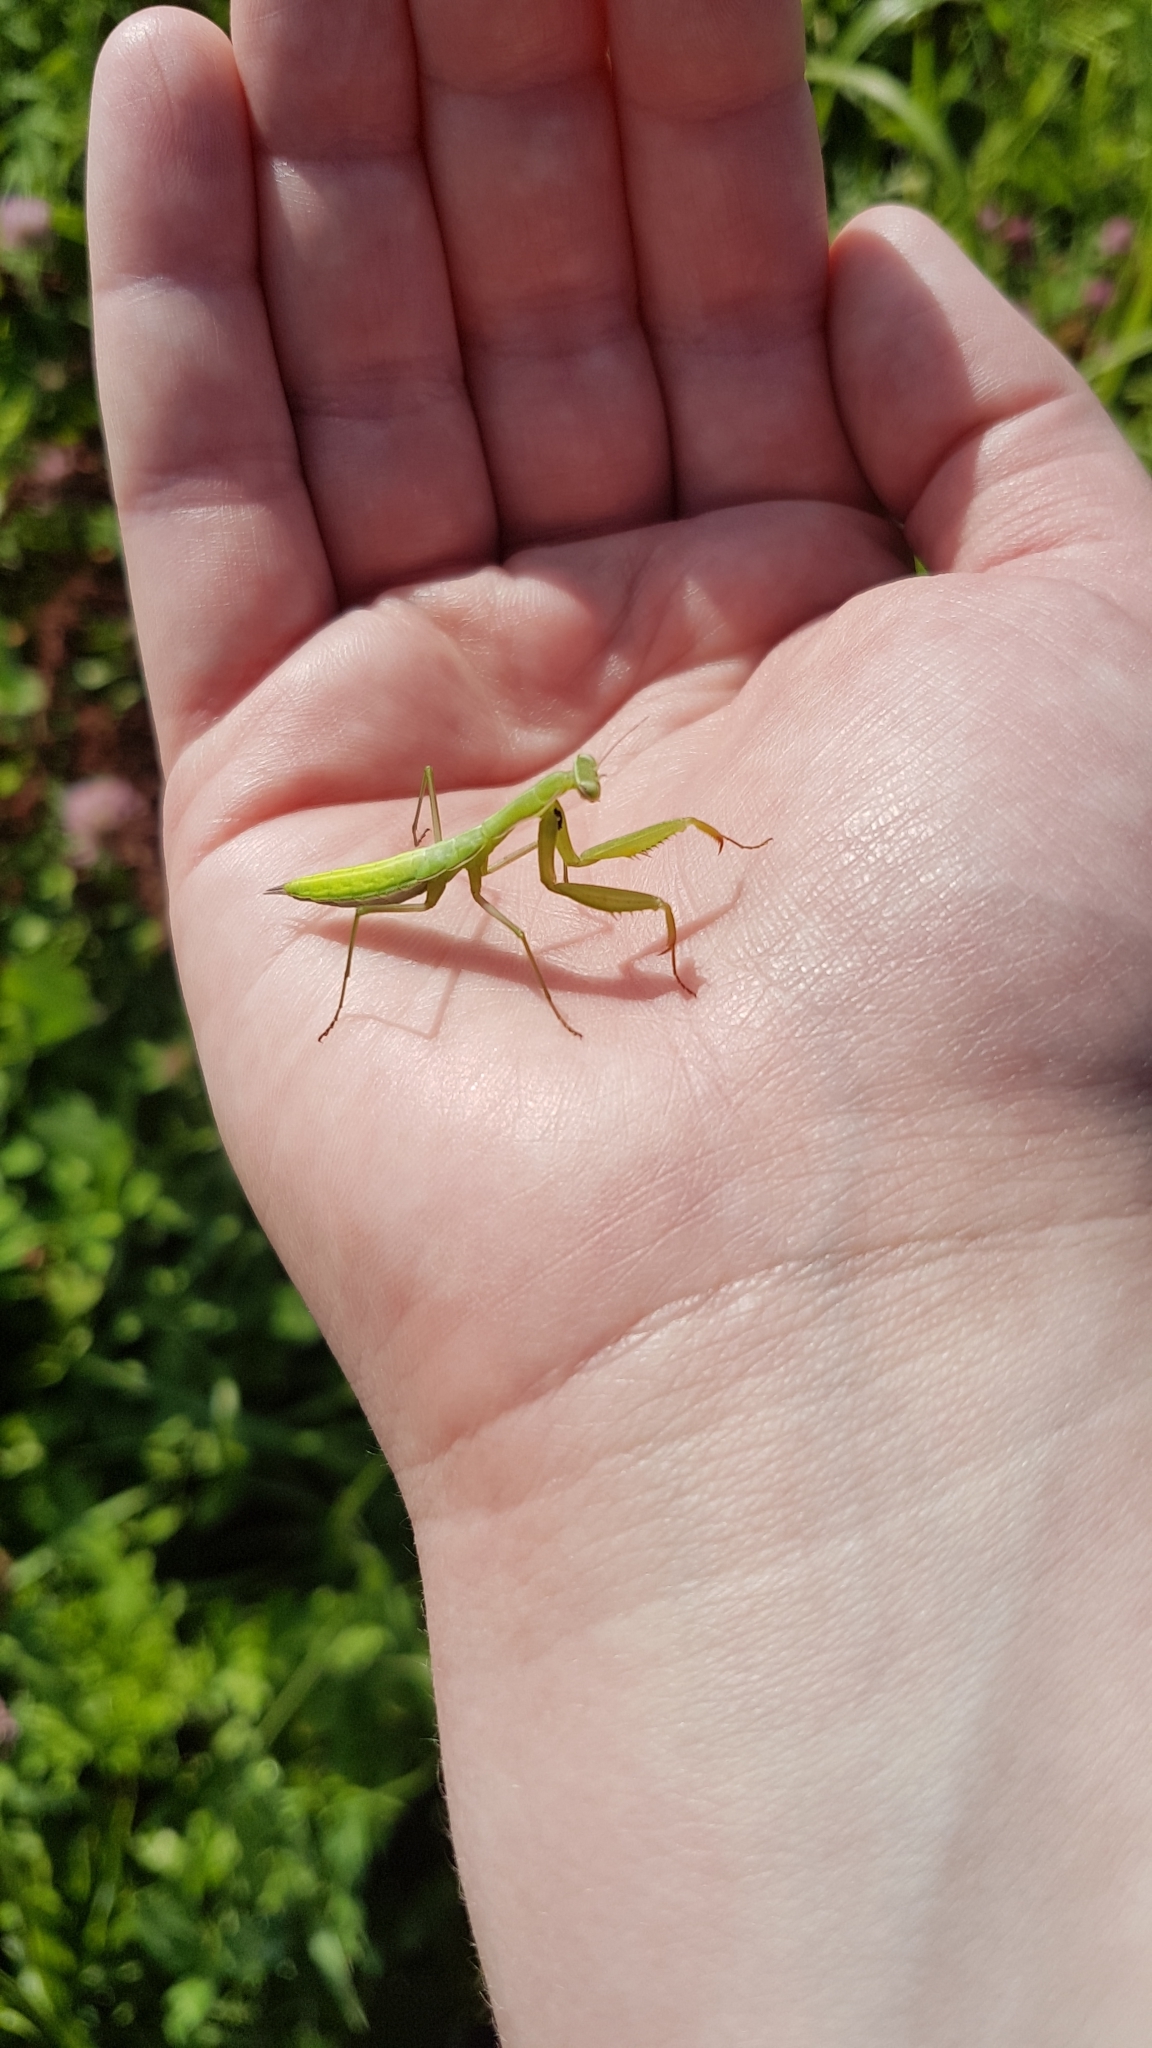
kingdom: Animalia
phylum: Arthropoda
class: Insecta
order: Mantodea
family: Mantidae
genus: Mantis
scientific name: Mantis religiosa
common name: Praying mantis
